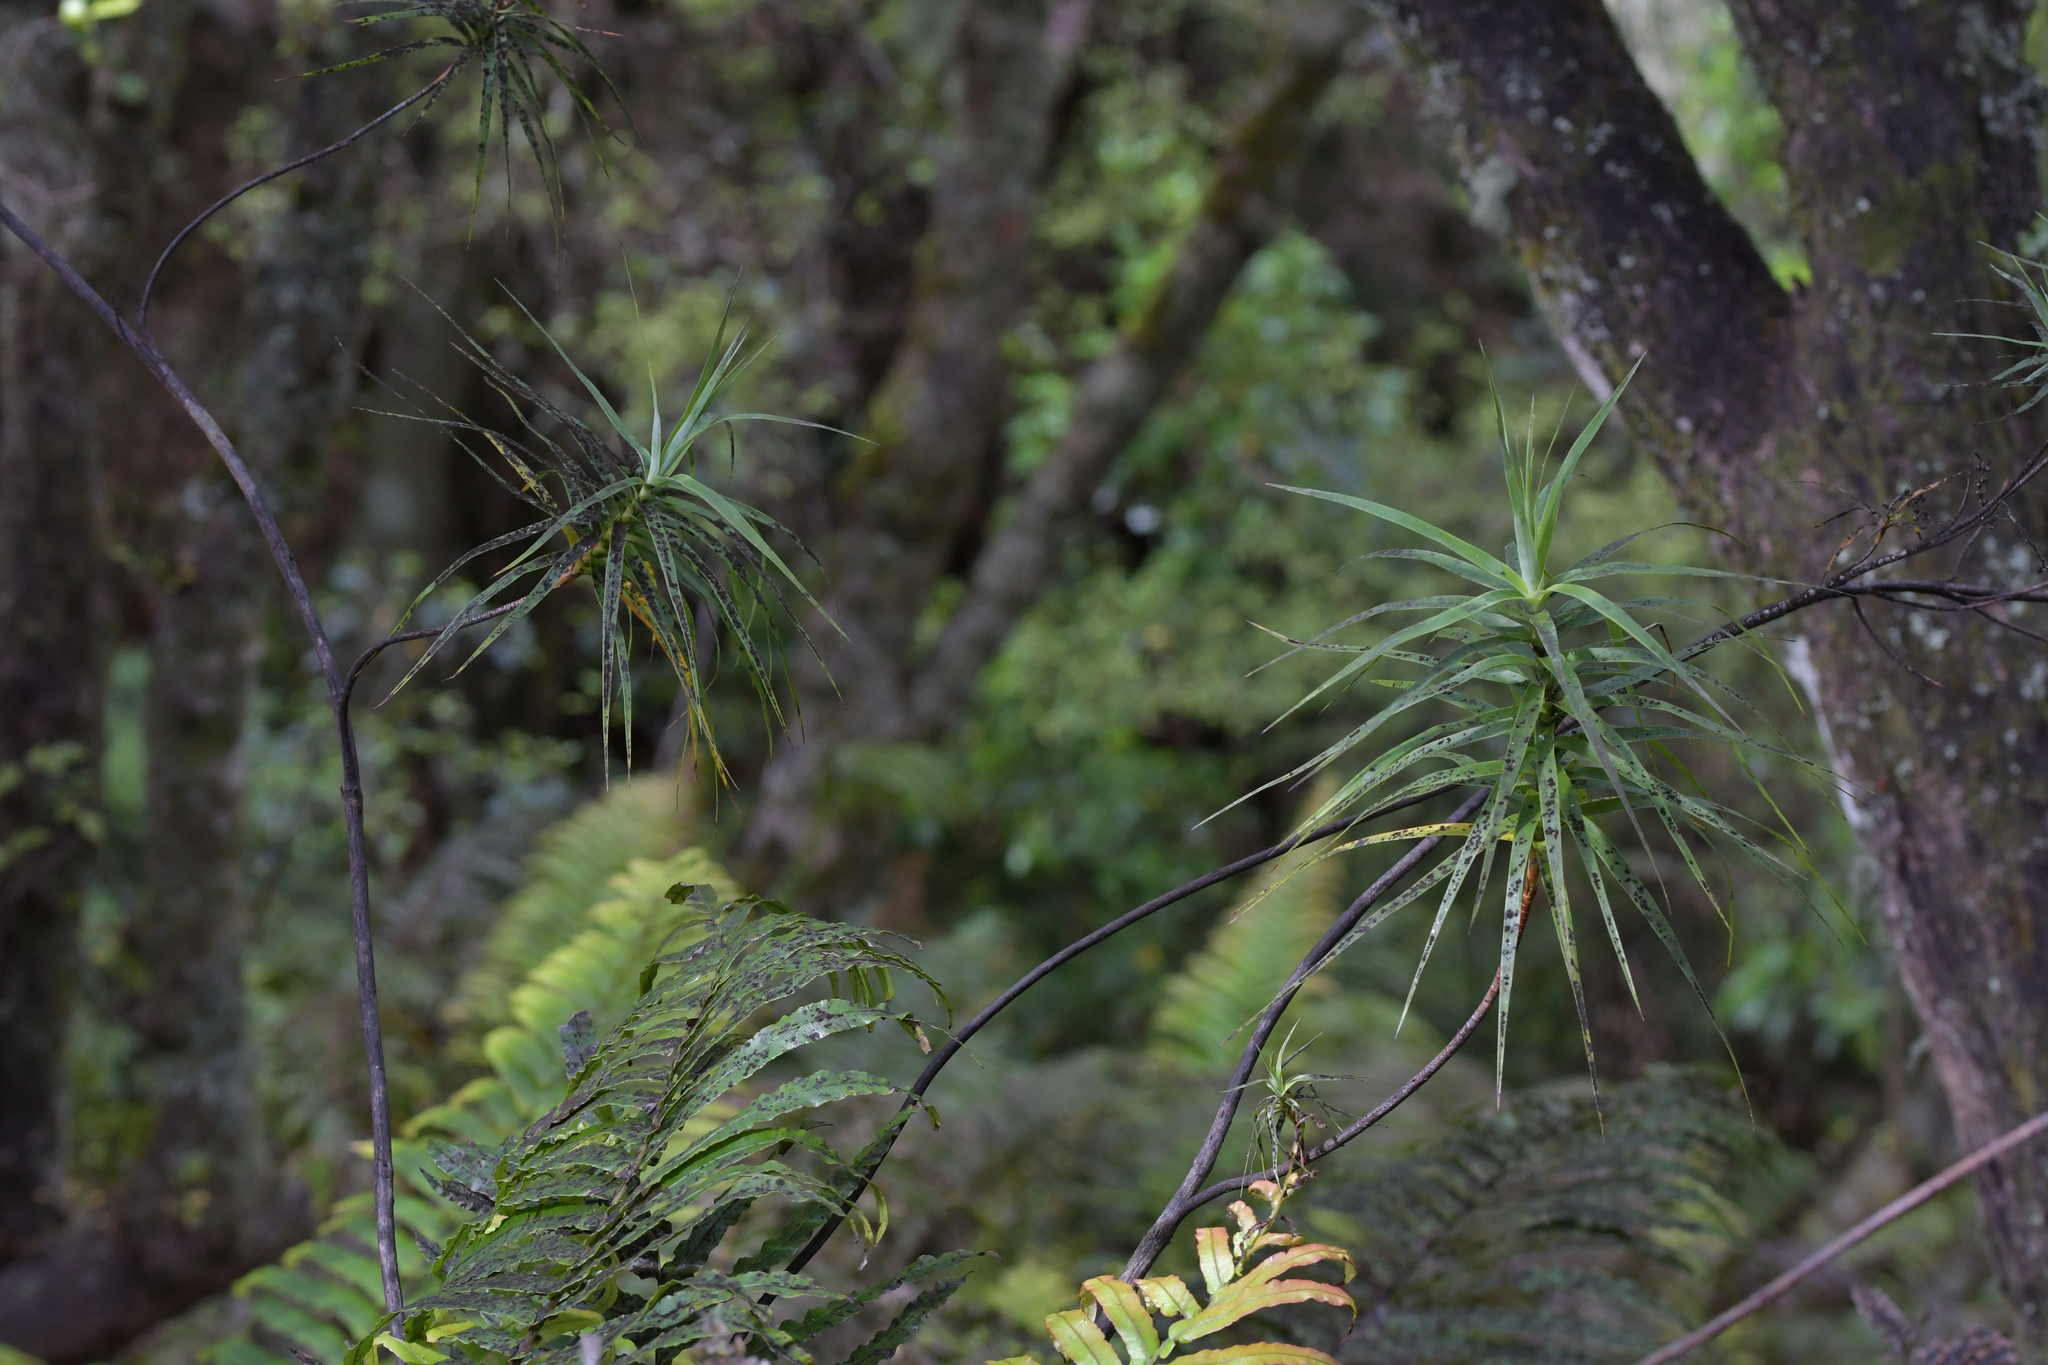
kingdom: Plantae
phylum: Tracheophyta
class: Magnoliopsida
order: Ericales
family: Ericaceae
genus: Dracophyllum
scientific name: Dracophyllum strictum
